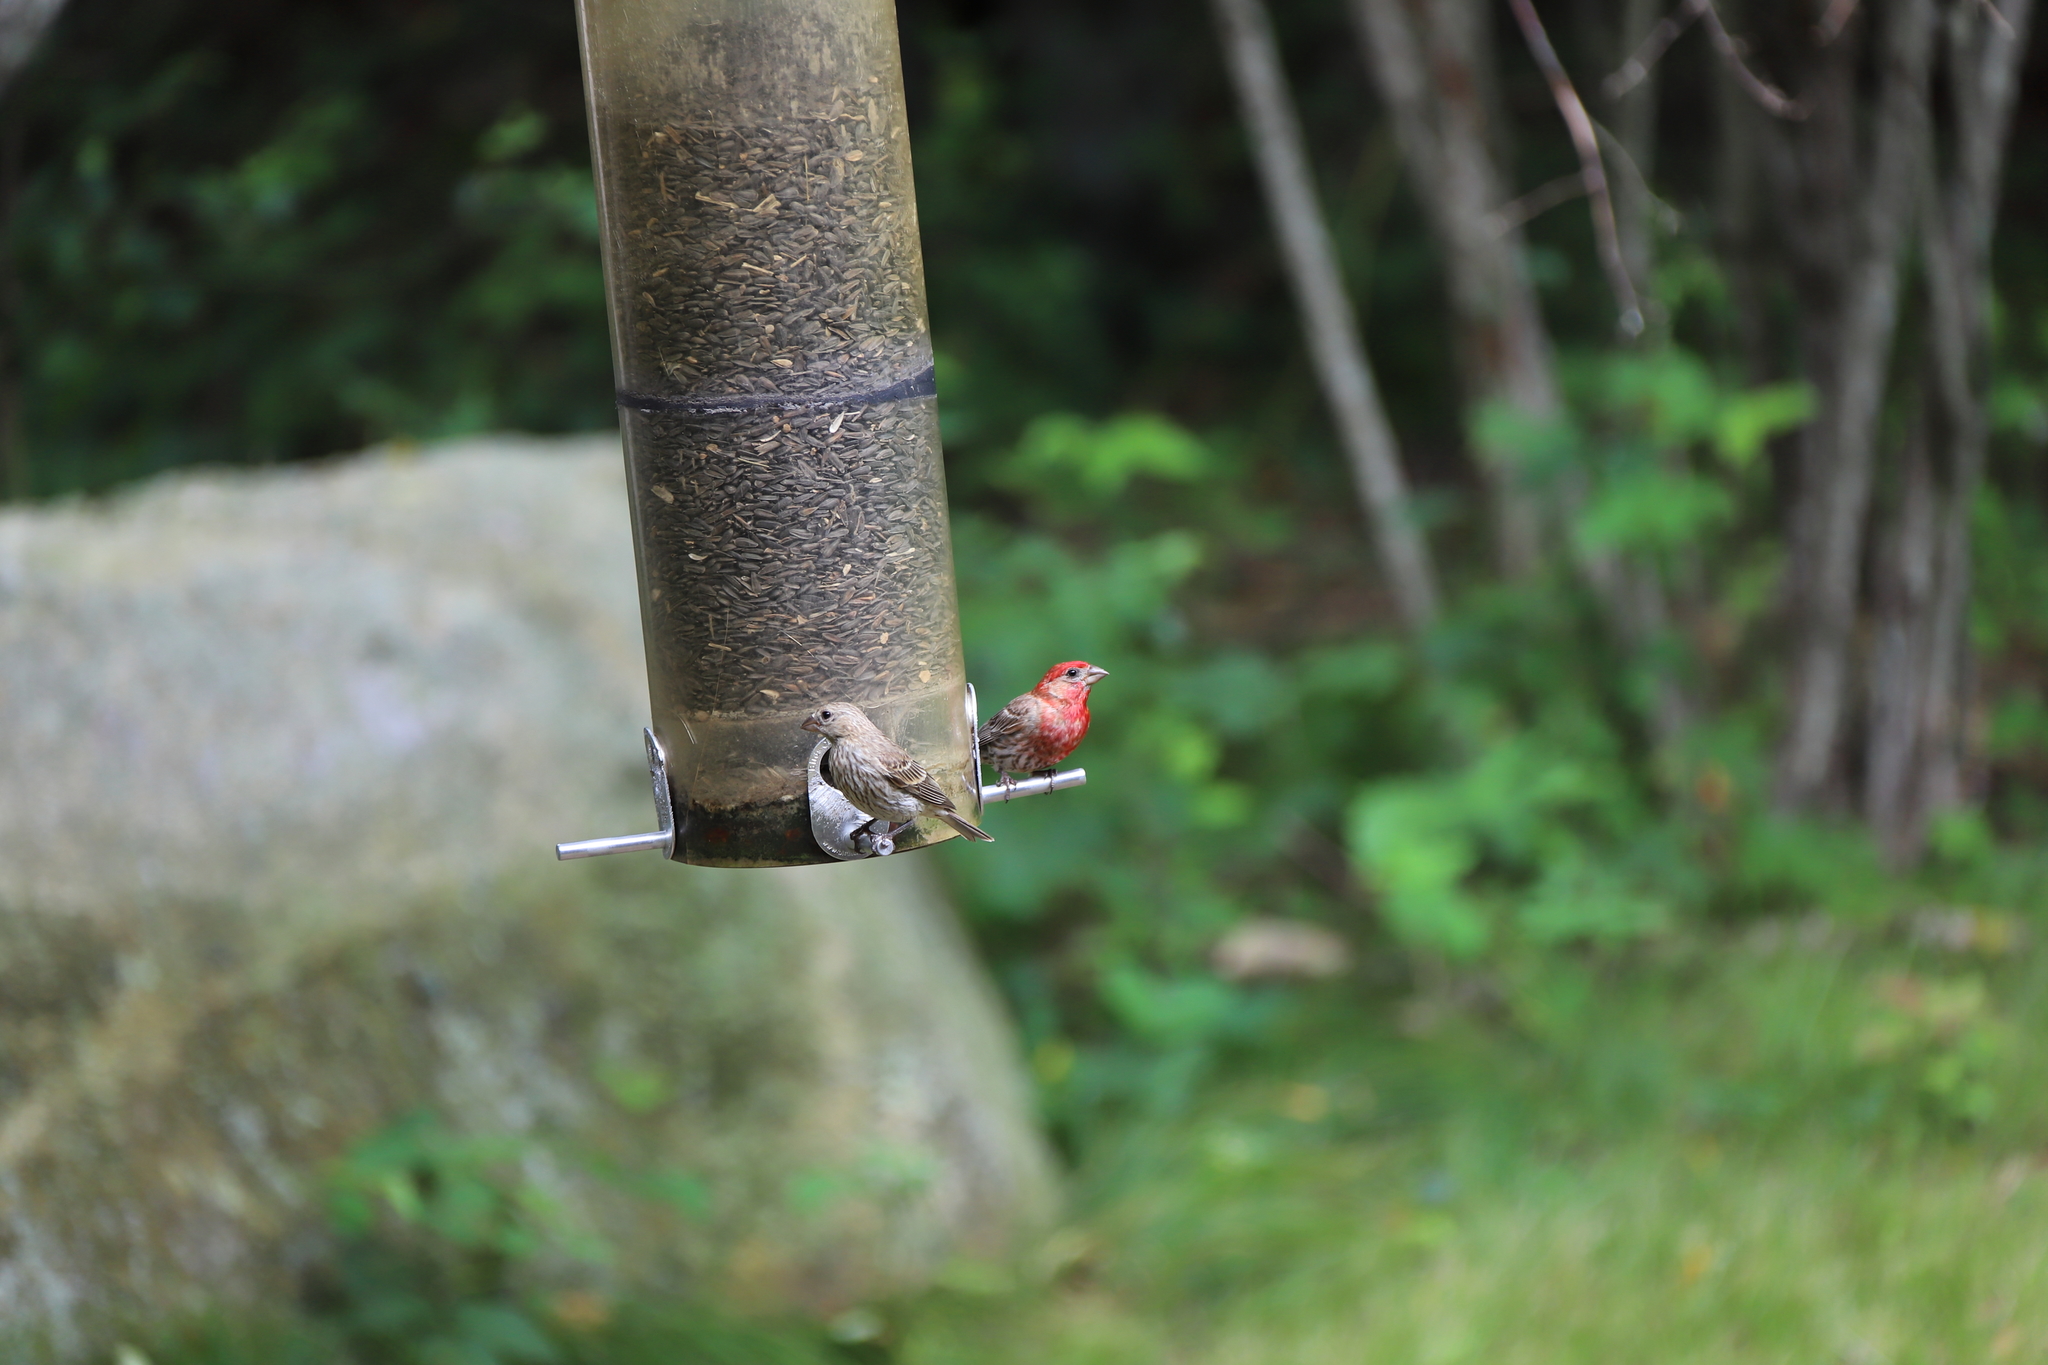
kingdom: Animalia
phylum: Chordata
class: Aves
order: Passeriformes
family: Fringillidae
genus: Haemorhous
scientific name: Haemorhous mexicanus
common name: House finch
